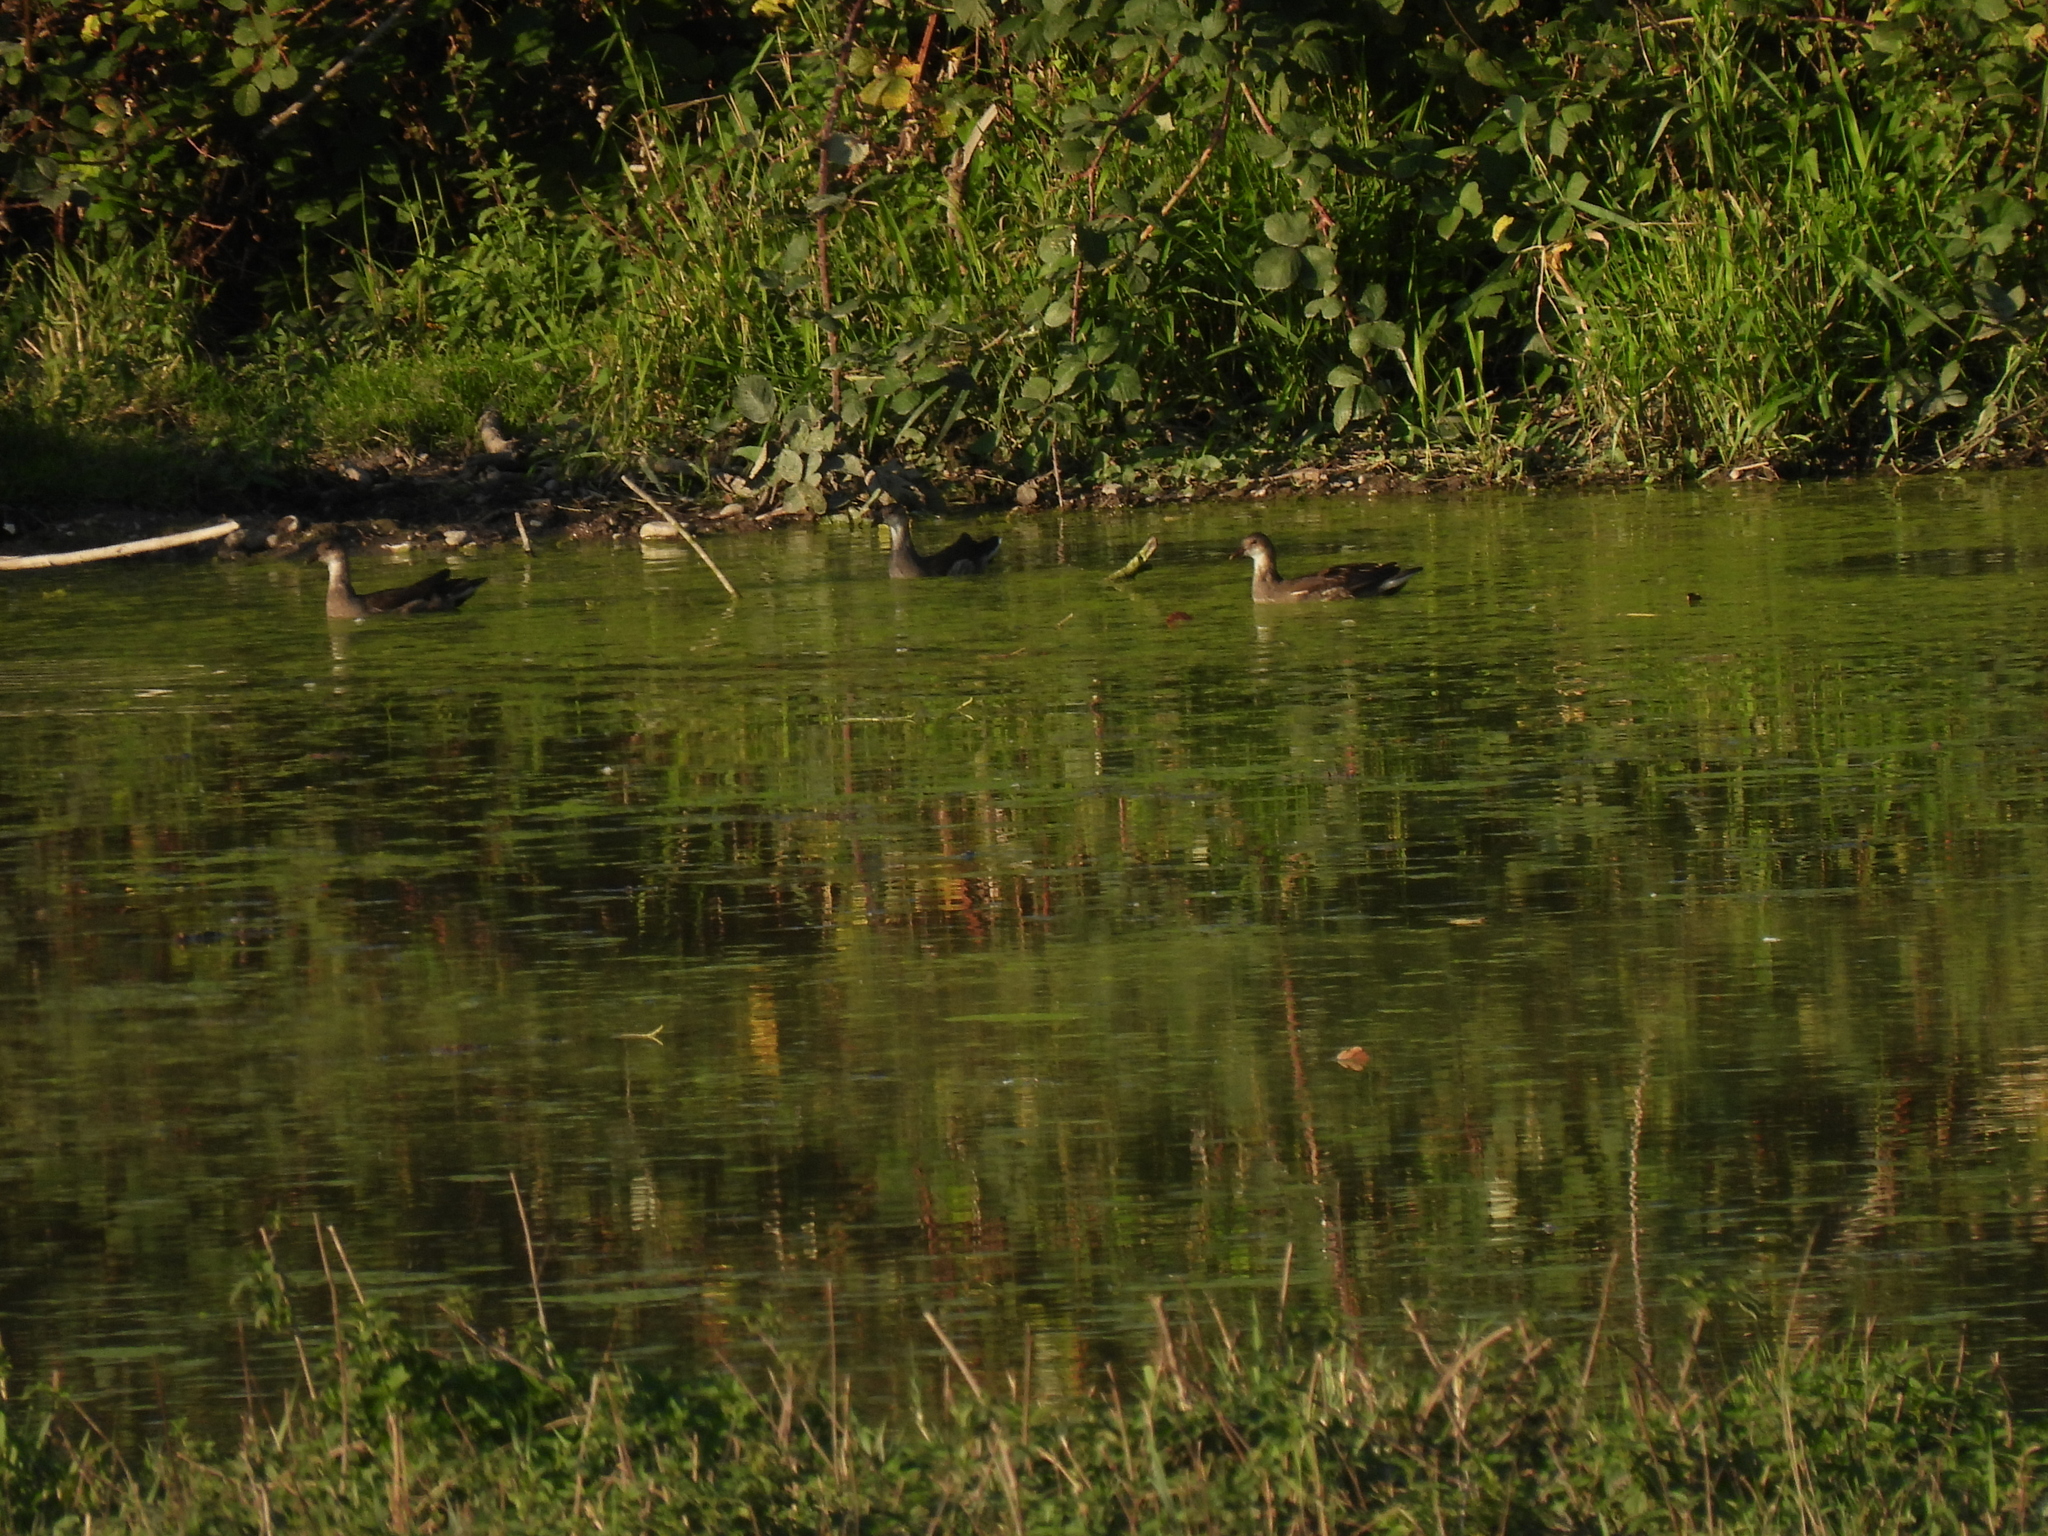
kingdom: Animalia
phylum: Chordata
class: Aves
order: Gruiformes
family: Rallidae
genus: Gallinula
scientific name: Gallinula chloropus
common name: Common moorhen
